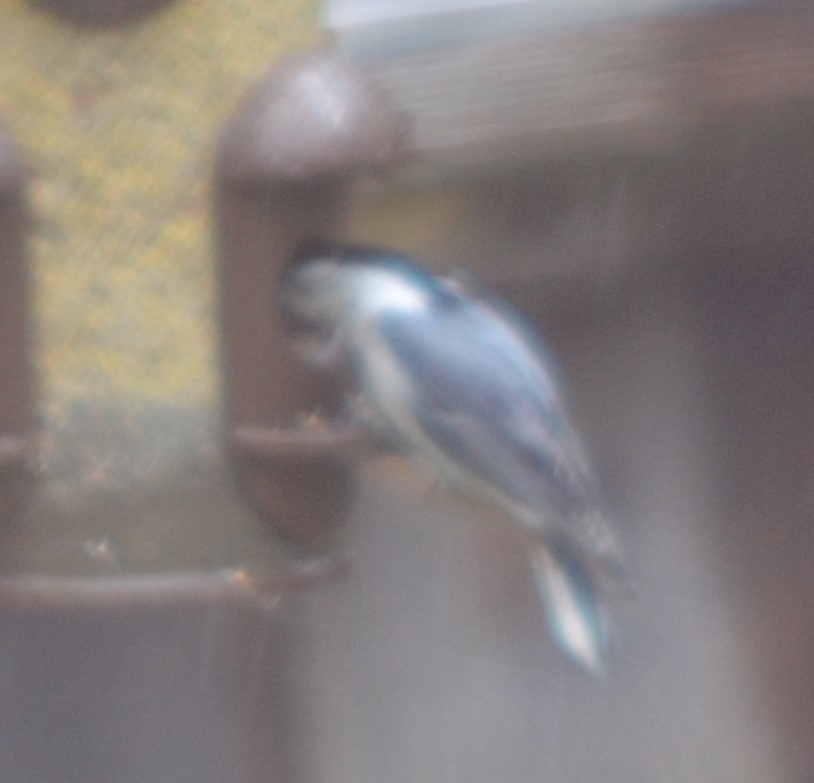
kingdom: Animalia
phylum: Chordata
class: Aves
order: Passeriformes
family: Sittidae
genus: Sitta
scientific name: Sitta carolinensis
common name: White-breasted nuthatch
